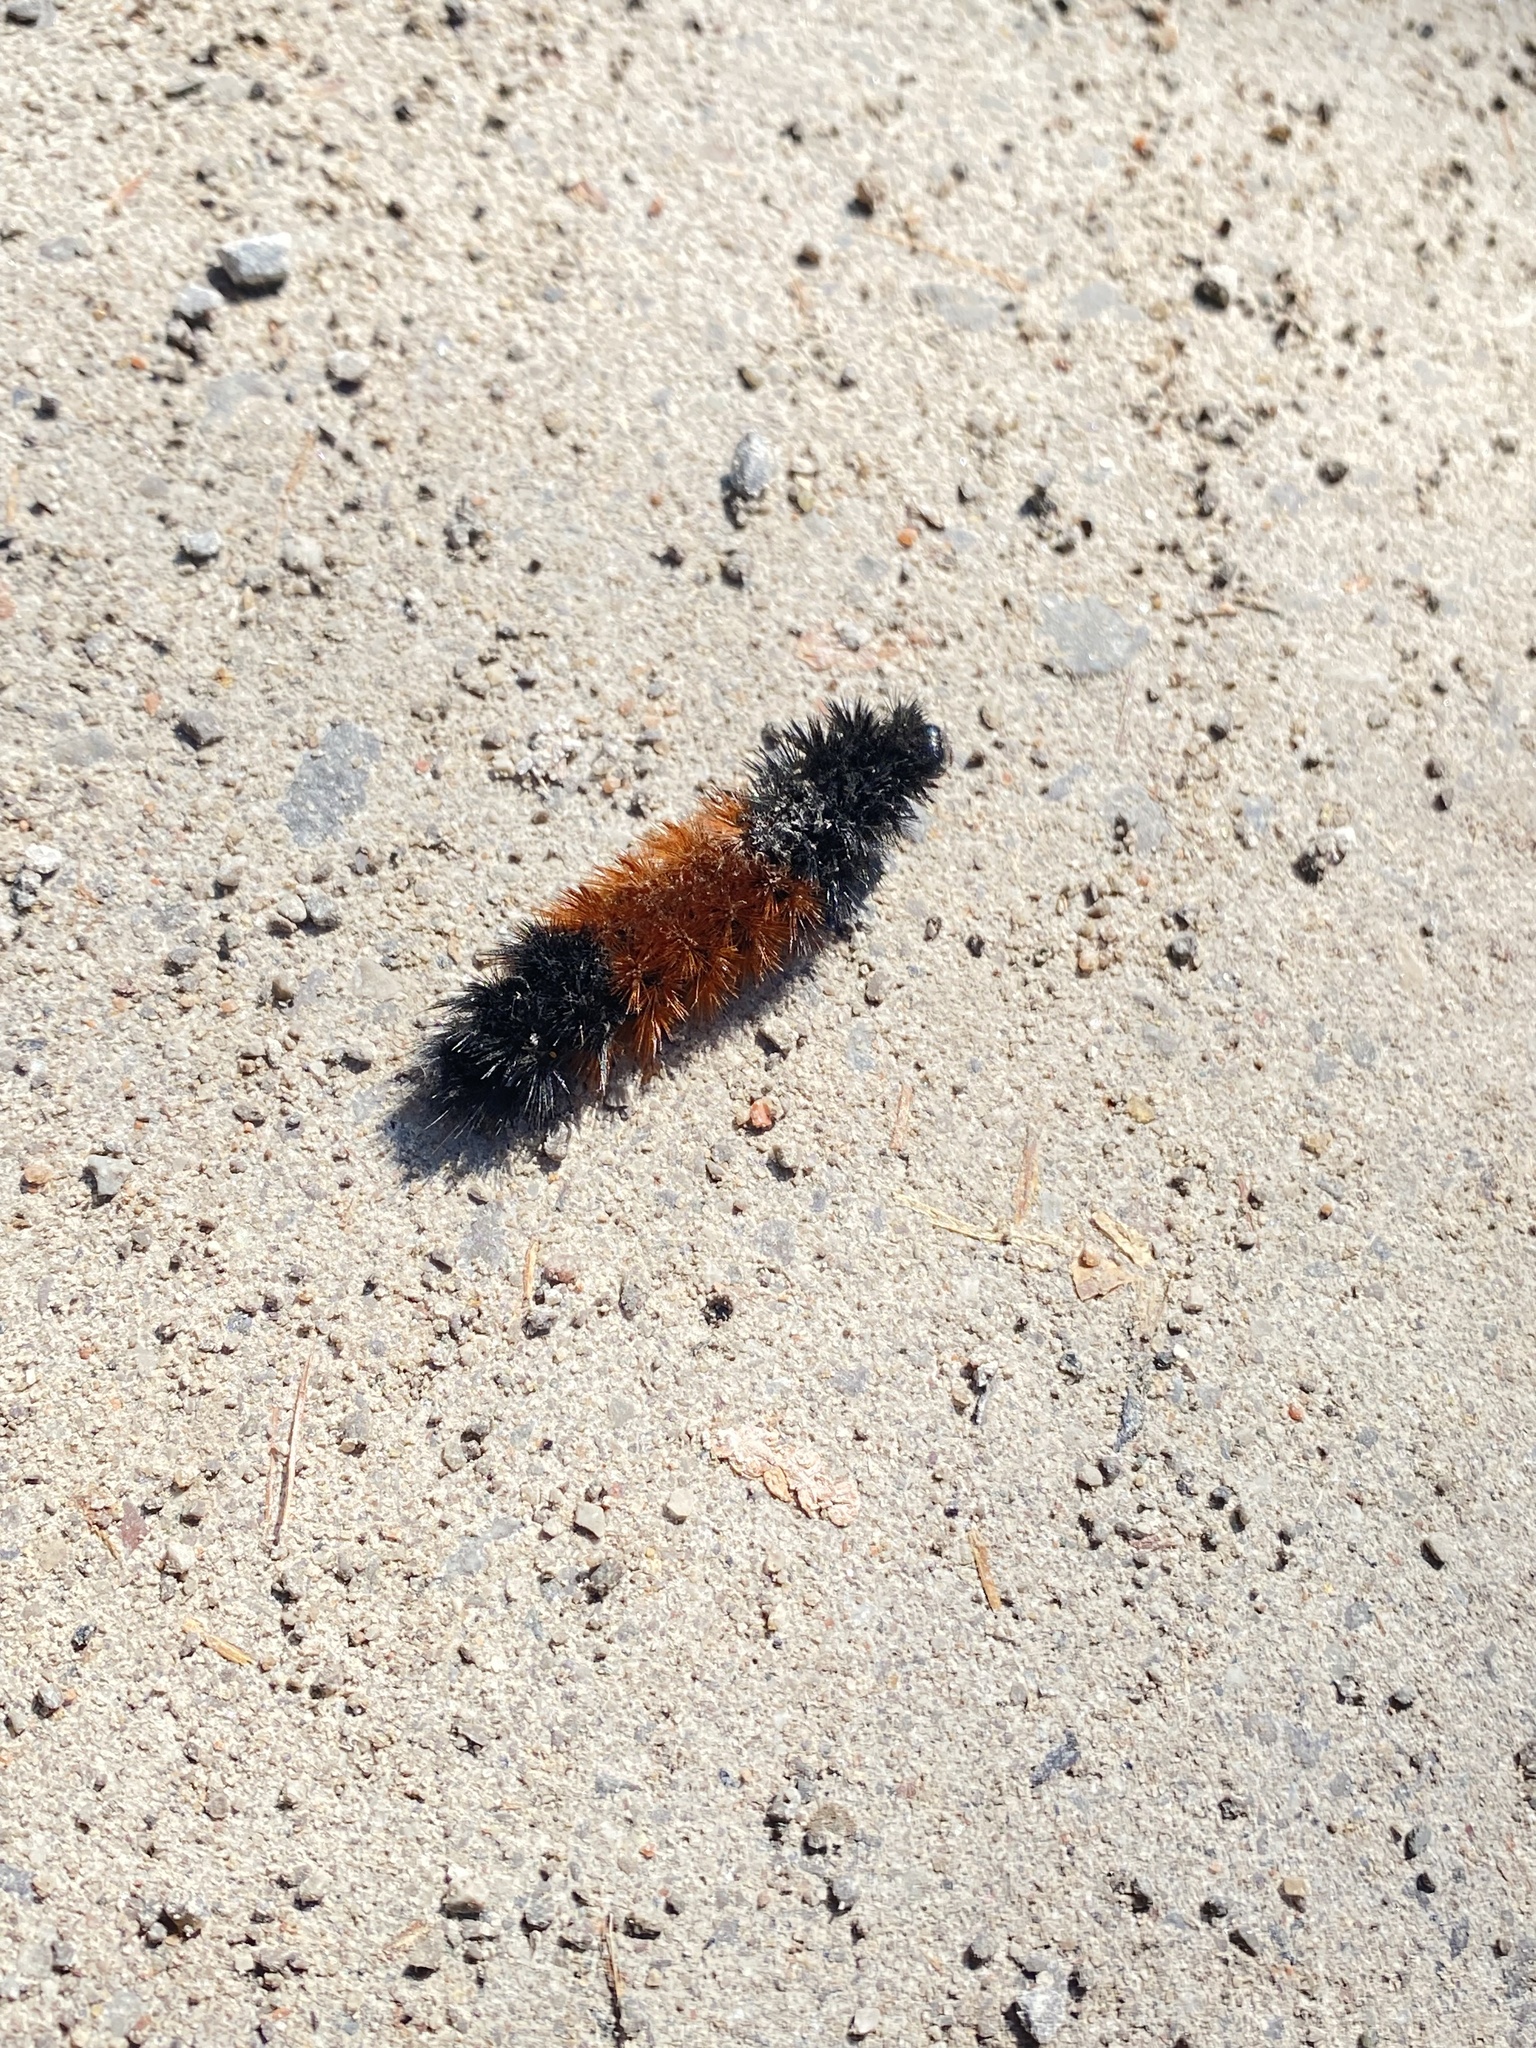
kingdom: Animalia
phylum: Arthropoda
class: Insecta
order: Lepidoptera
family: Erebidae
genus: Pyrrharctia
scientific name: Pyrrharctia isabella
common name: Isabella tiger moth
